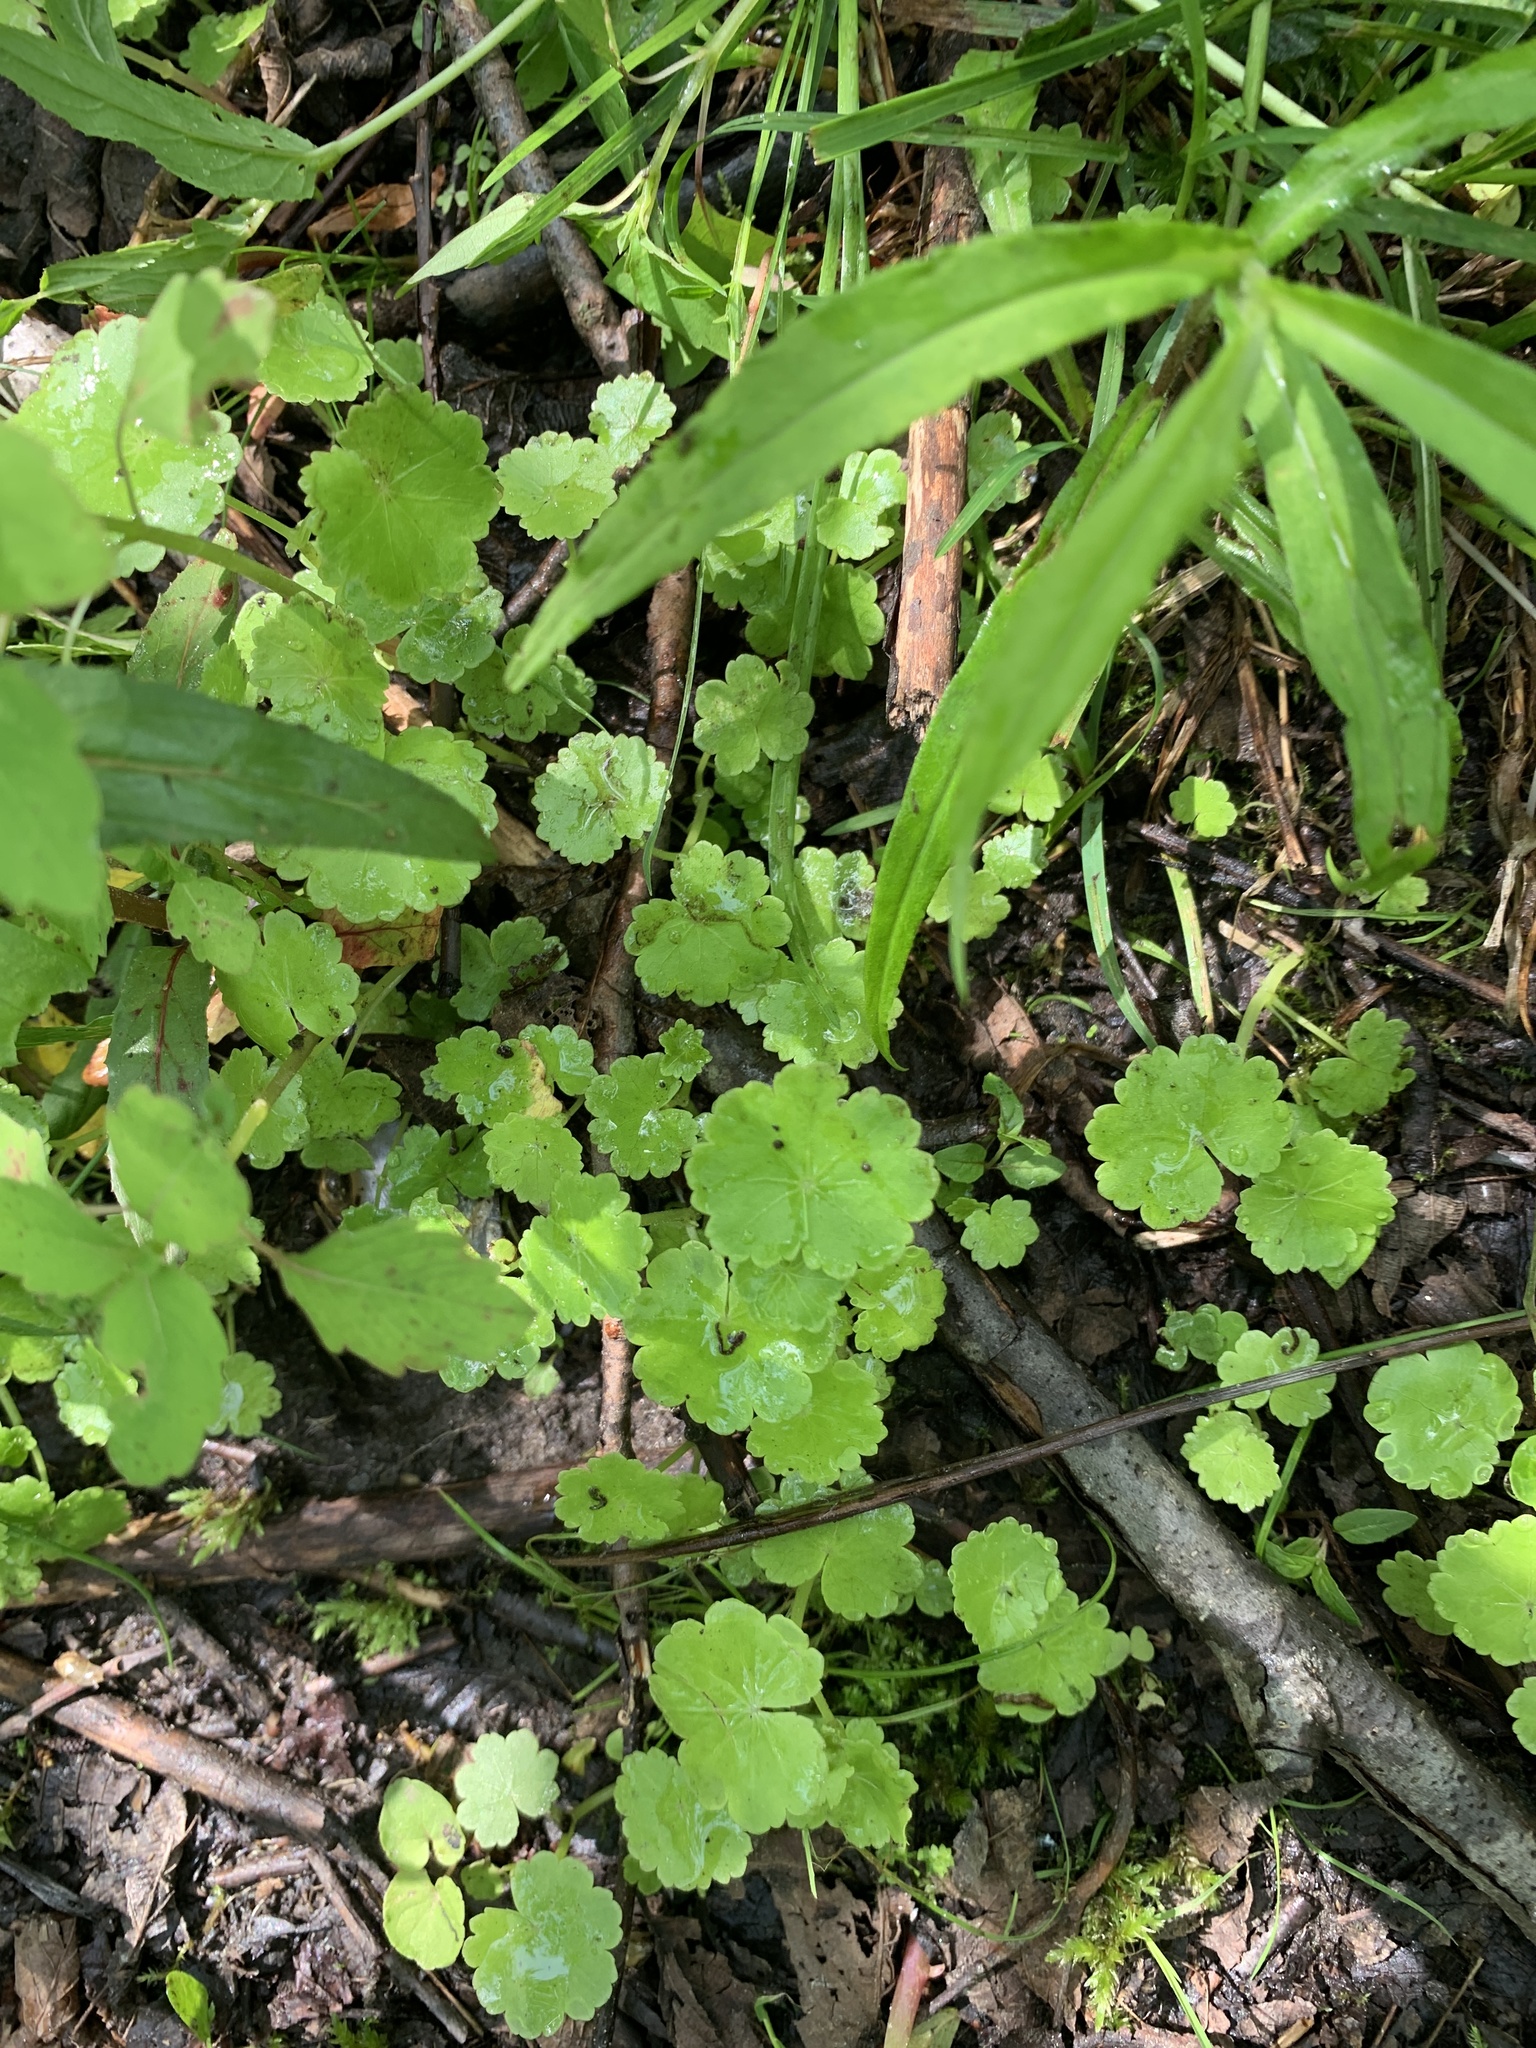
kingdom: Plantae
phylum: Tracheophyta
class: Magnoliopsida
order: Apiales
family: Araliaceae
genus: Hydrocotyle
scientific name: Hydrocotyle americana
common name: American water-pennywort
